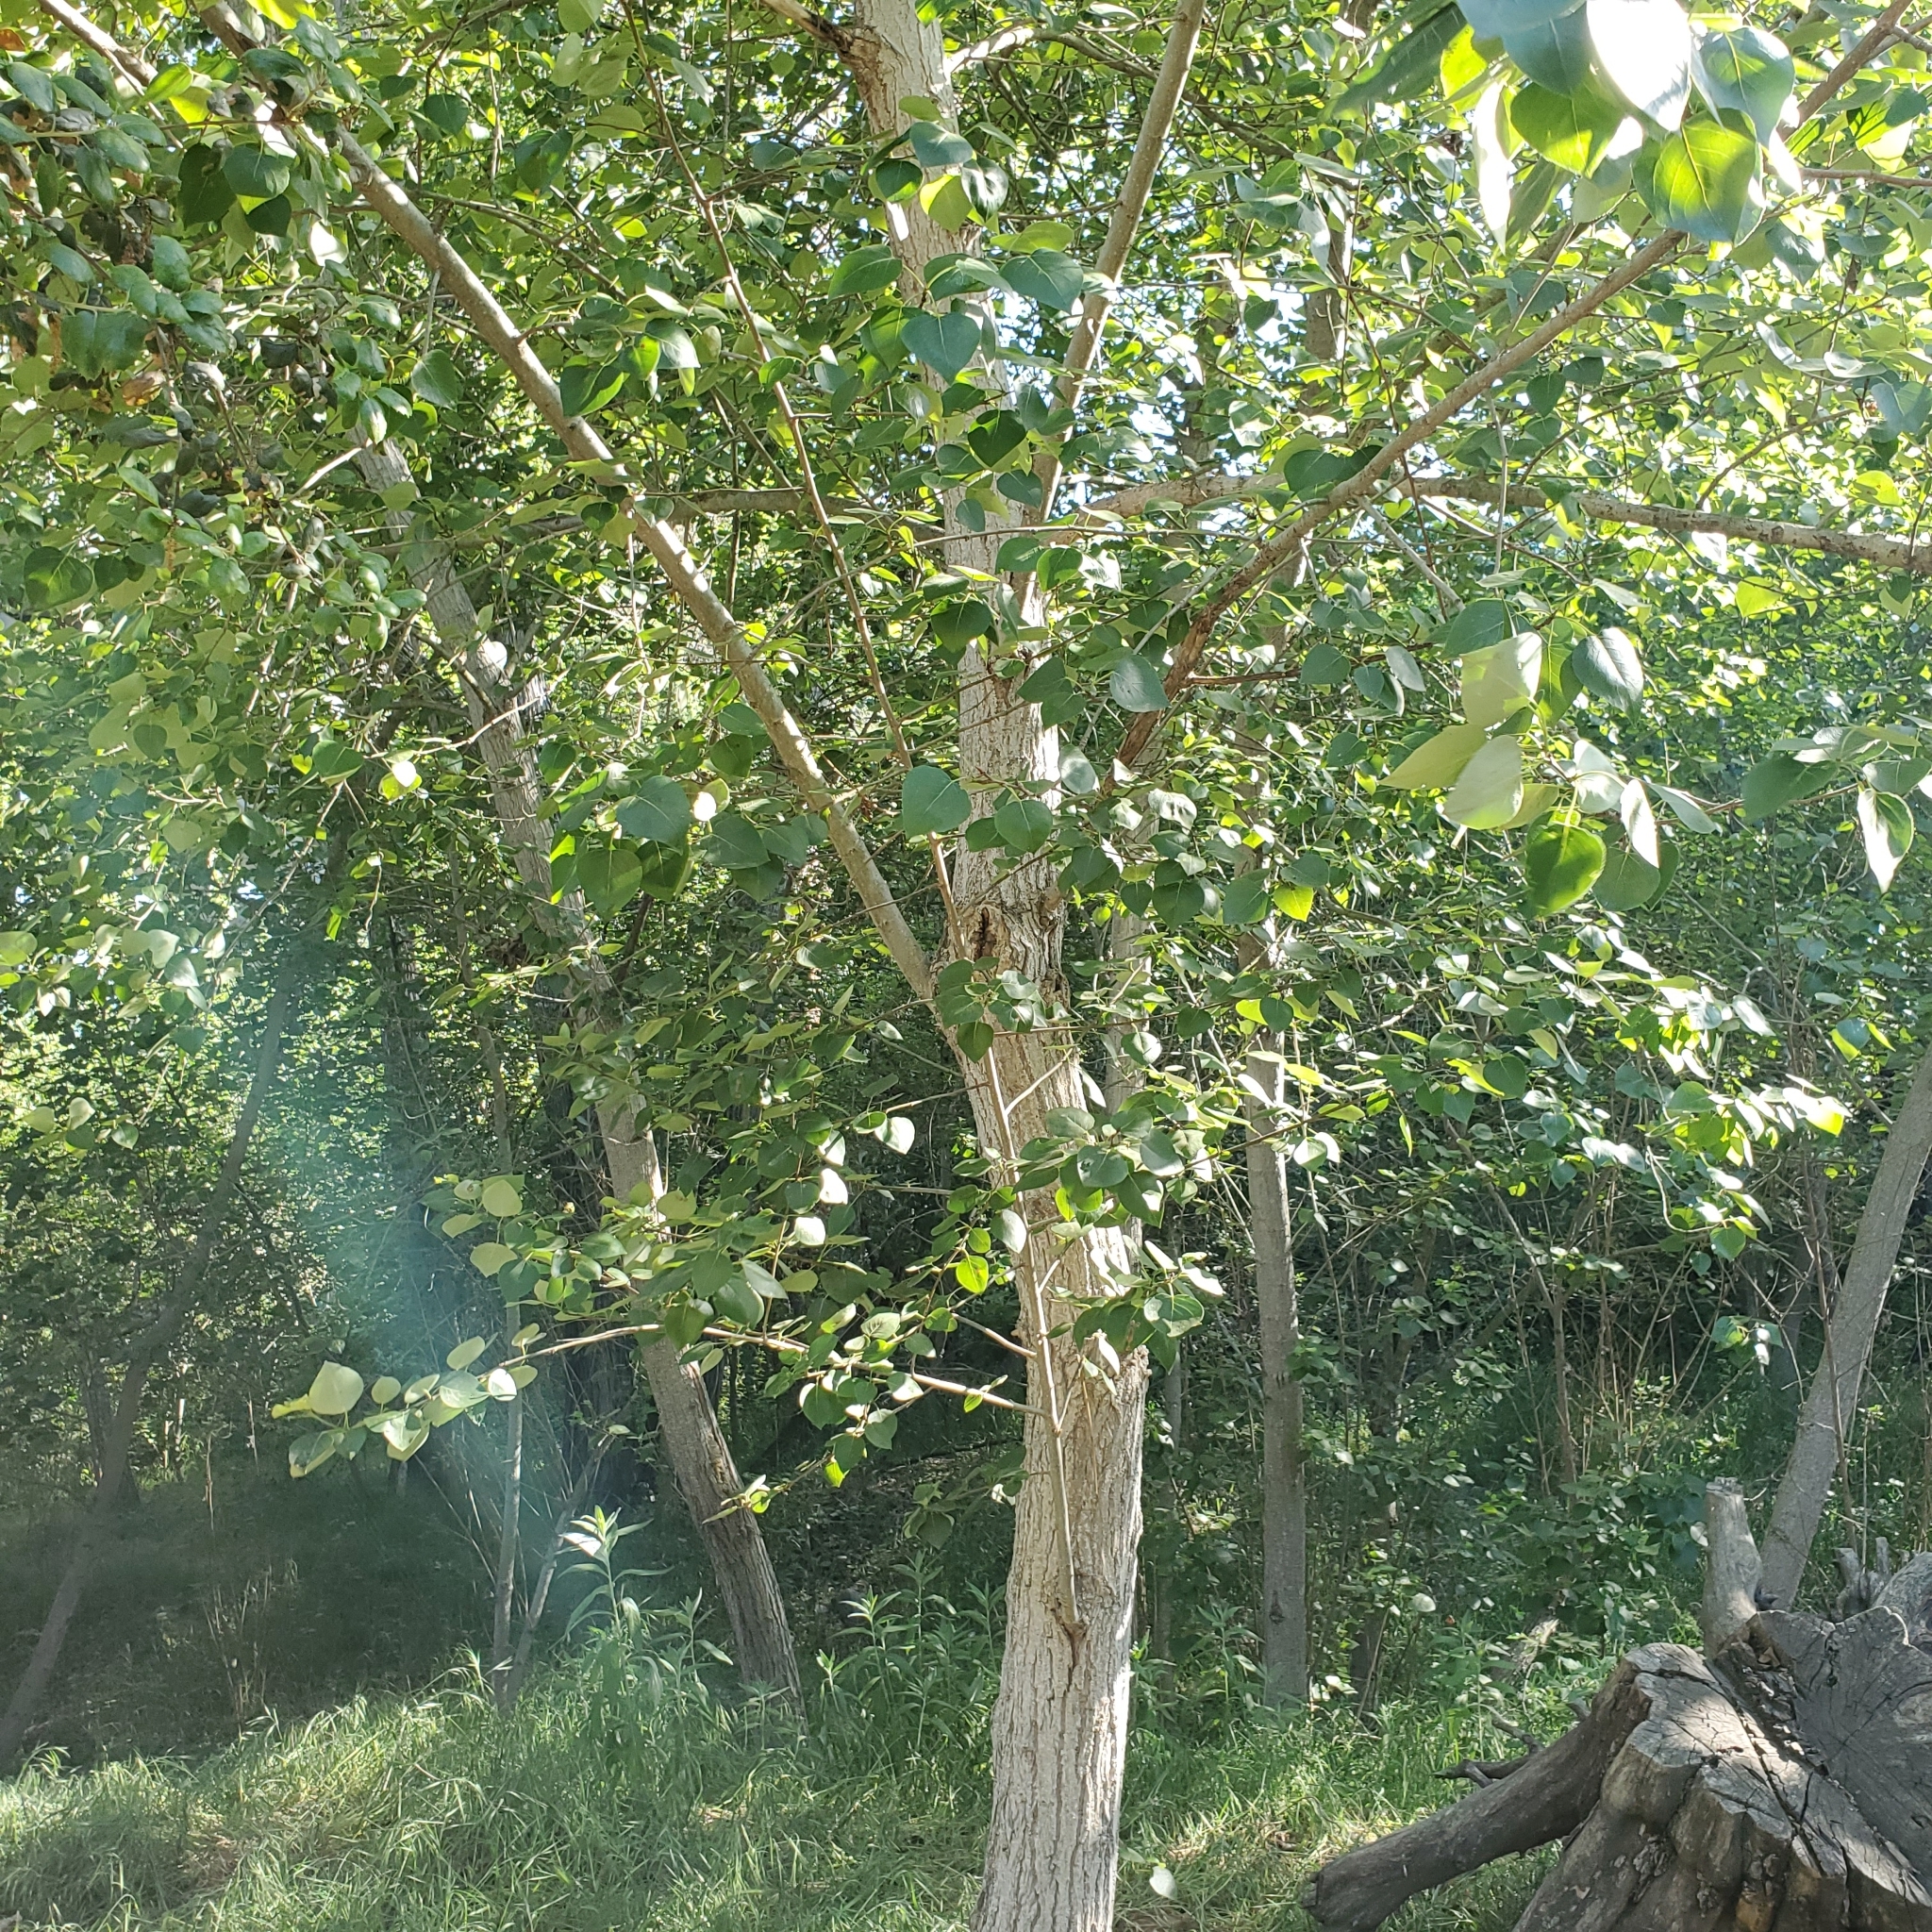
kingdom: Plantae
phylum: Tracheophyta
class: Magnoliopsida
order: Malpighiales
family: Salicaceae
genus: Populus
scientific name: Populus fremontii
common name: Fremont's cottonwood
